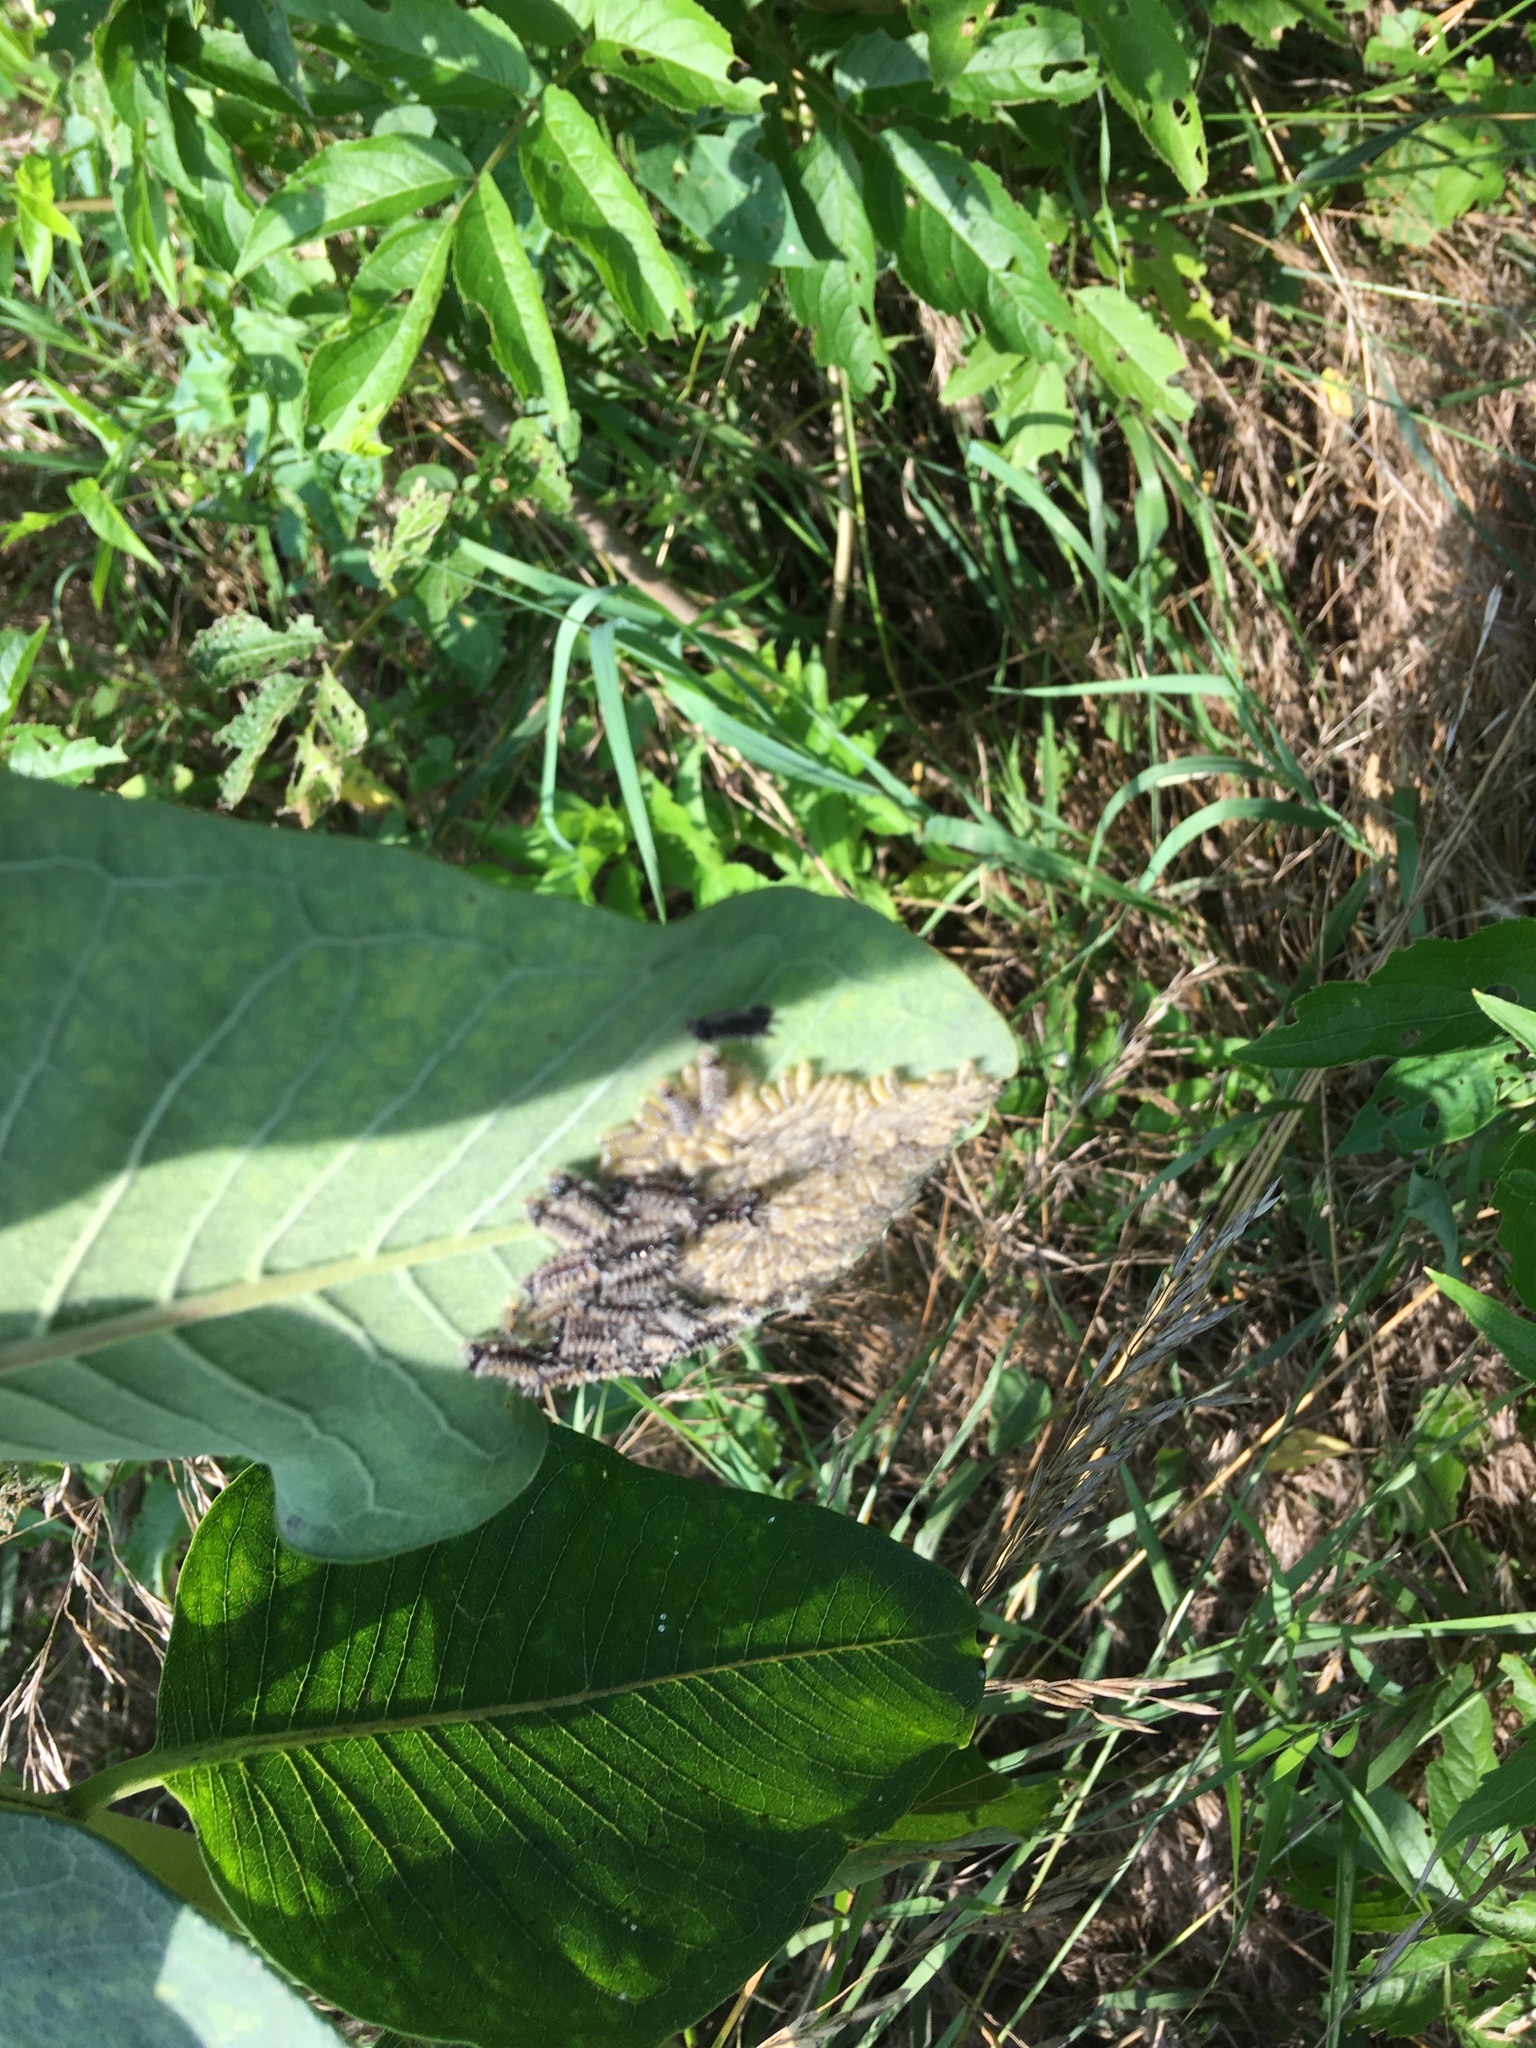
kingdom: Animalia
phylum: Arthropoda
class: Insecta
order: Lepidoptera
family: Erebidae
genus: Euchaetes
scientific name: Euchaetes egle
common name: Milkweed tussock moth
